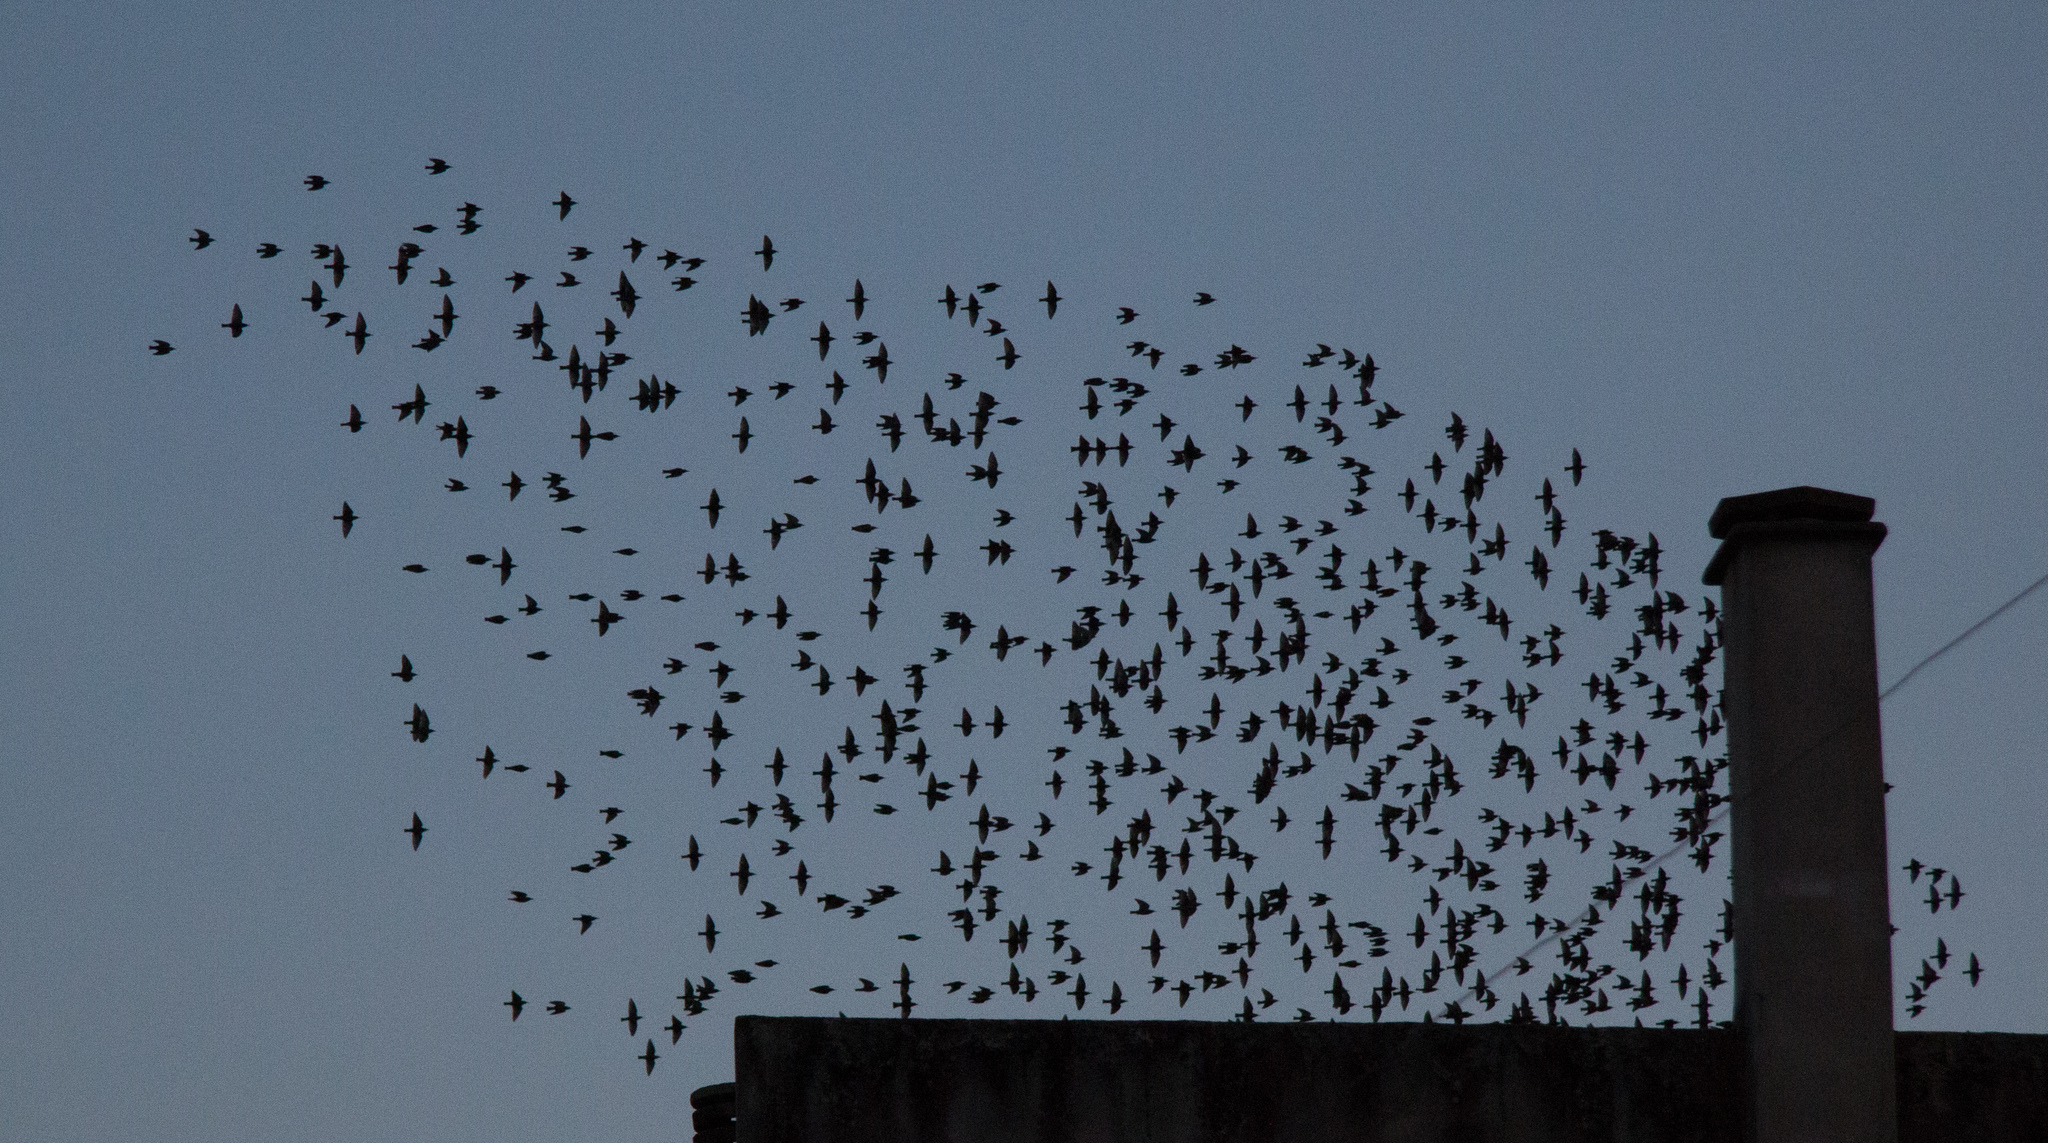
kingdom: Animalia
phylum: Chordata
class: Aves
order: Passeriformes
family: Sturnidae
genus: Sturnus
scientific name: Sturnus vulgaris
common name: Common starling
